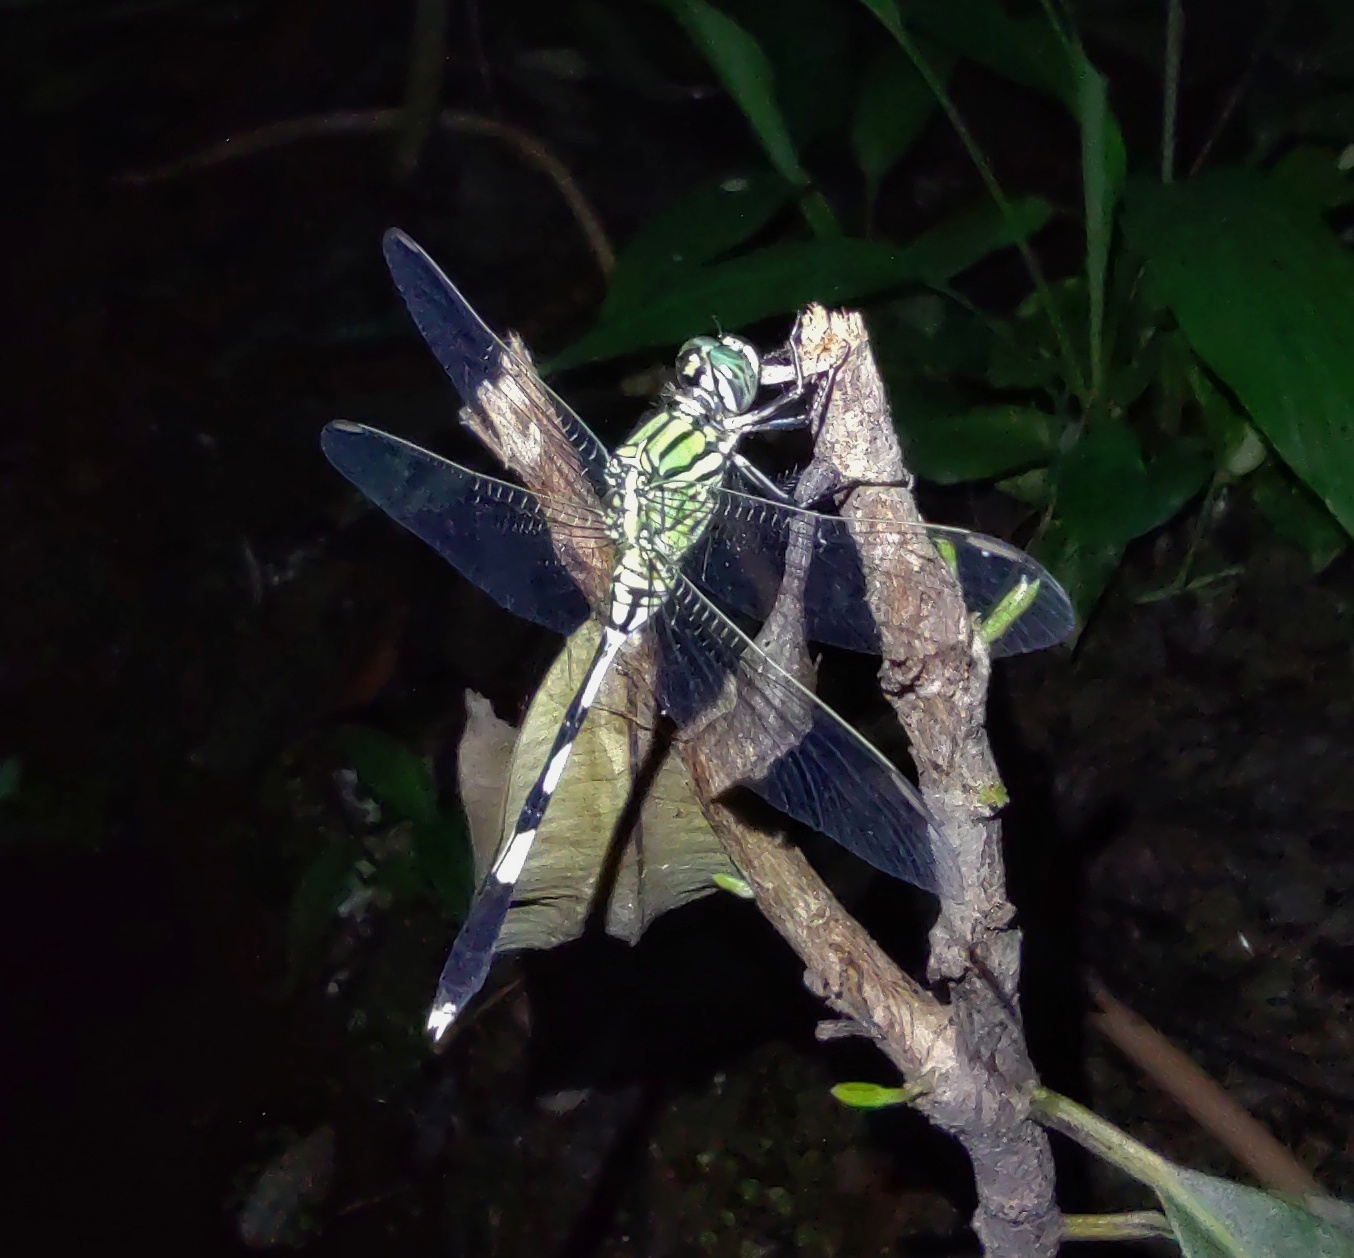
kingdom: Animalia
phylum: Arthropoda
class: Insecta
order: Odonata
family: Libellulidae
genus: Orthetrum
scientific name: Orthetrum sabina
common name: Slender skimmer
